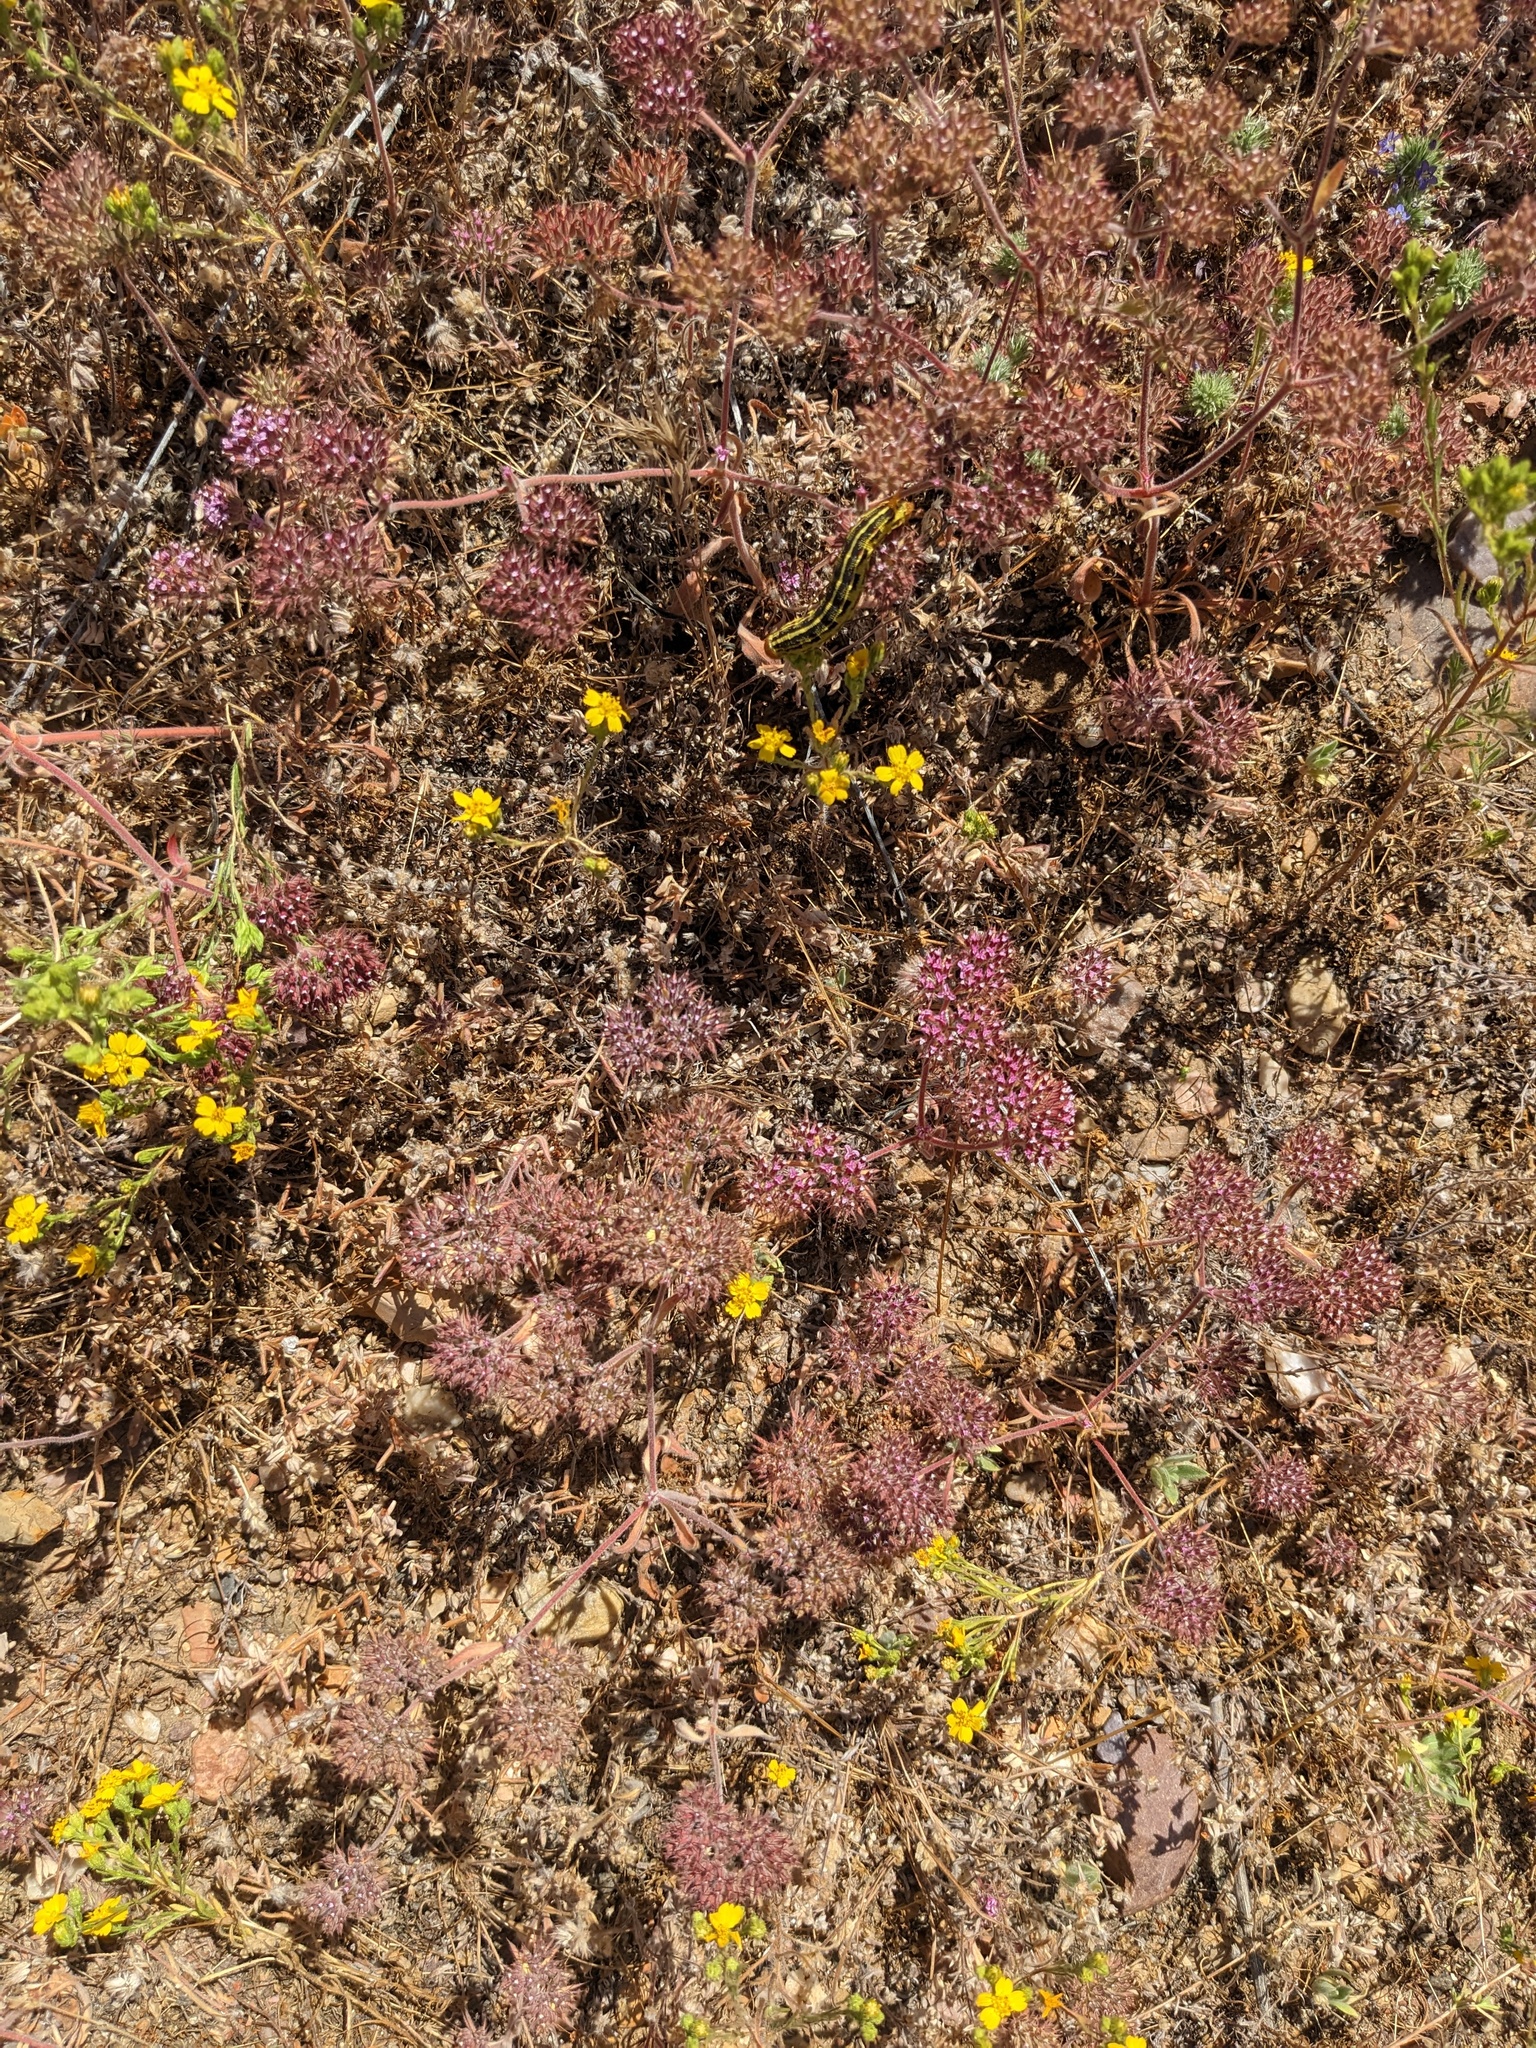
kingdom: Plantae
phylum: Tracheophyta
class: Magnoliopsida
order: Caryophyllales
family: Polygonaceae
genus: Chorizanthe
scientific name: Chorizanthe biloba
